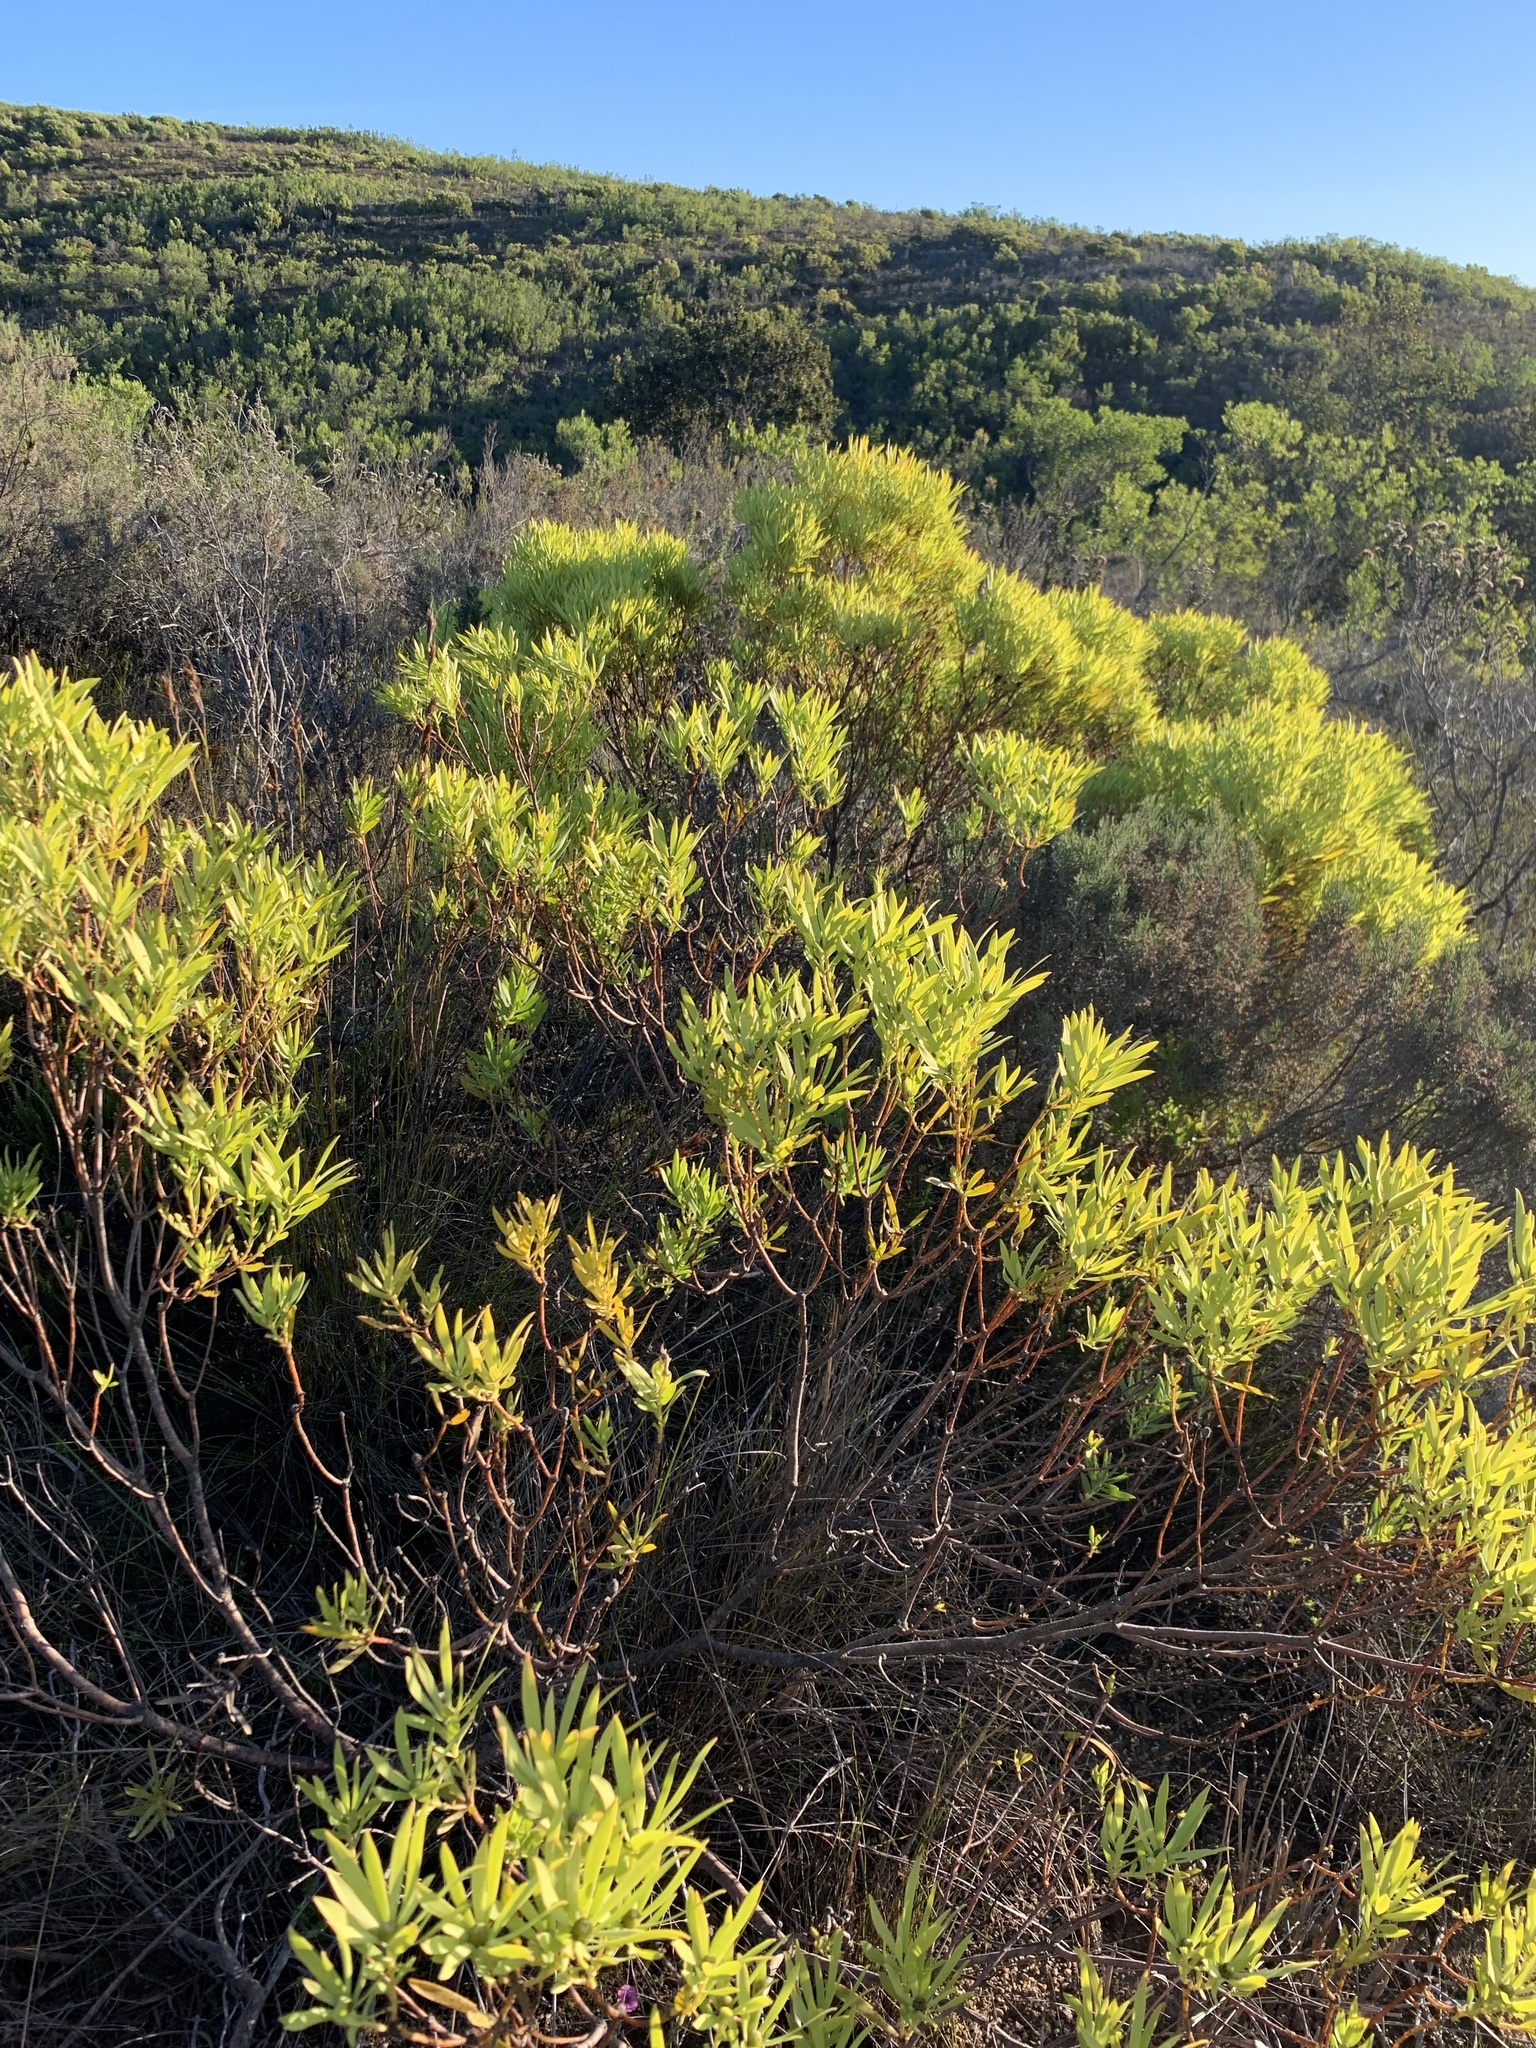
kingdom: Plantae
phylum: Tracheophyta
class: Magnoliopsida
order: Proteales
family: Proteaceae
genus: Leucadendron
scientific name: Leucadendron salignum
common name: Common sunshine conebush
